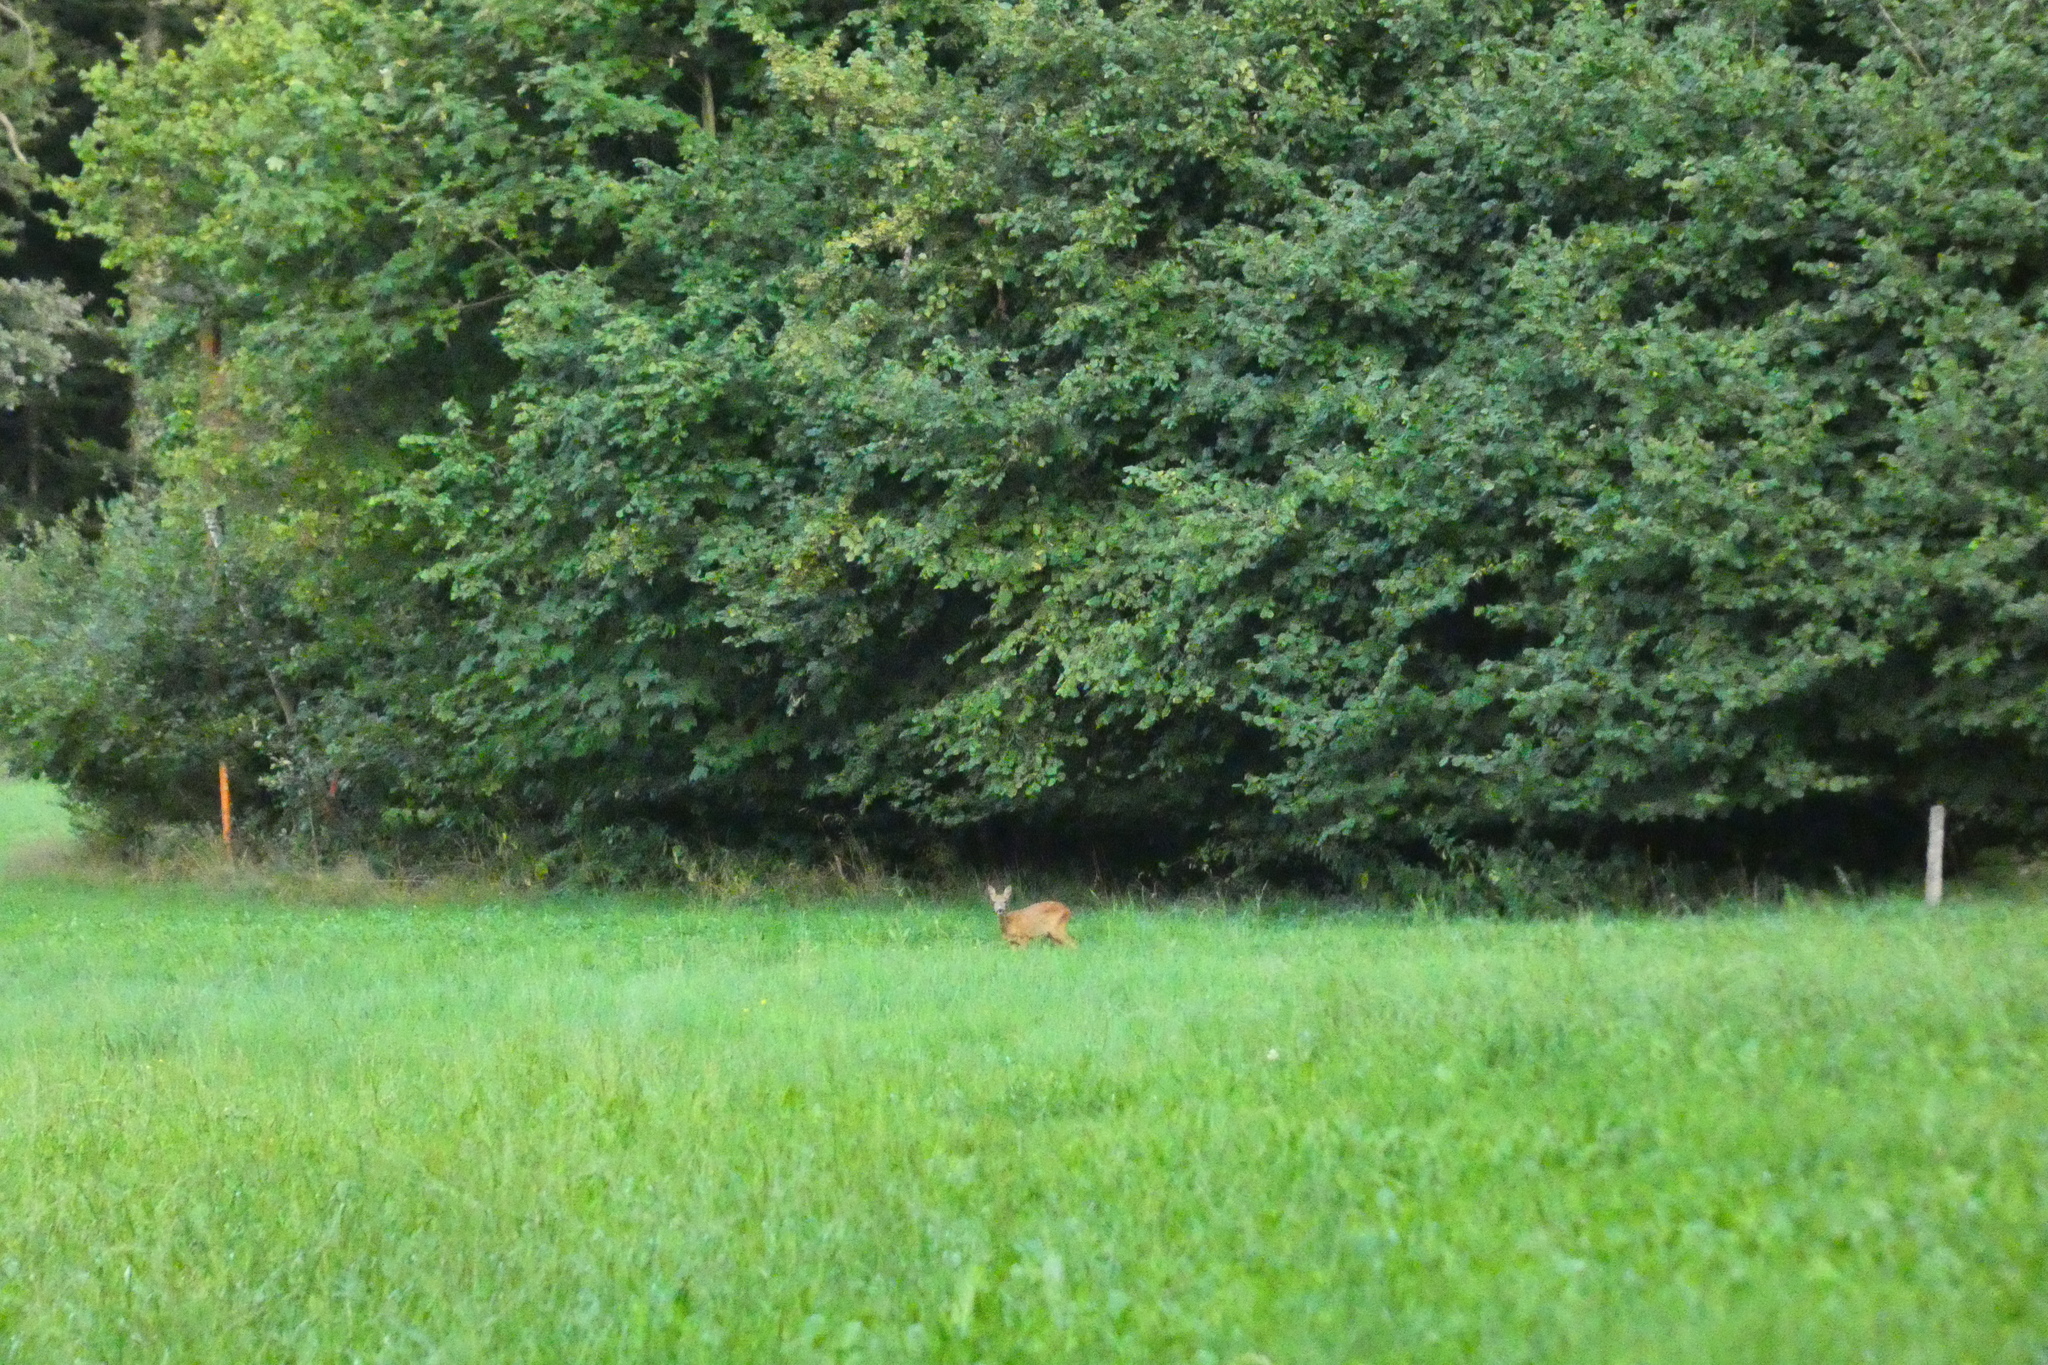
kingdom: Animalia
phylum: Chordata
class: Mammalia
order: Artiodactyla
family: Cervidae
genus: Capreolus
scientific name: Capreolus capreolus
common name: Western roe deer
